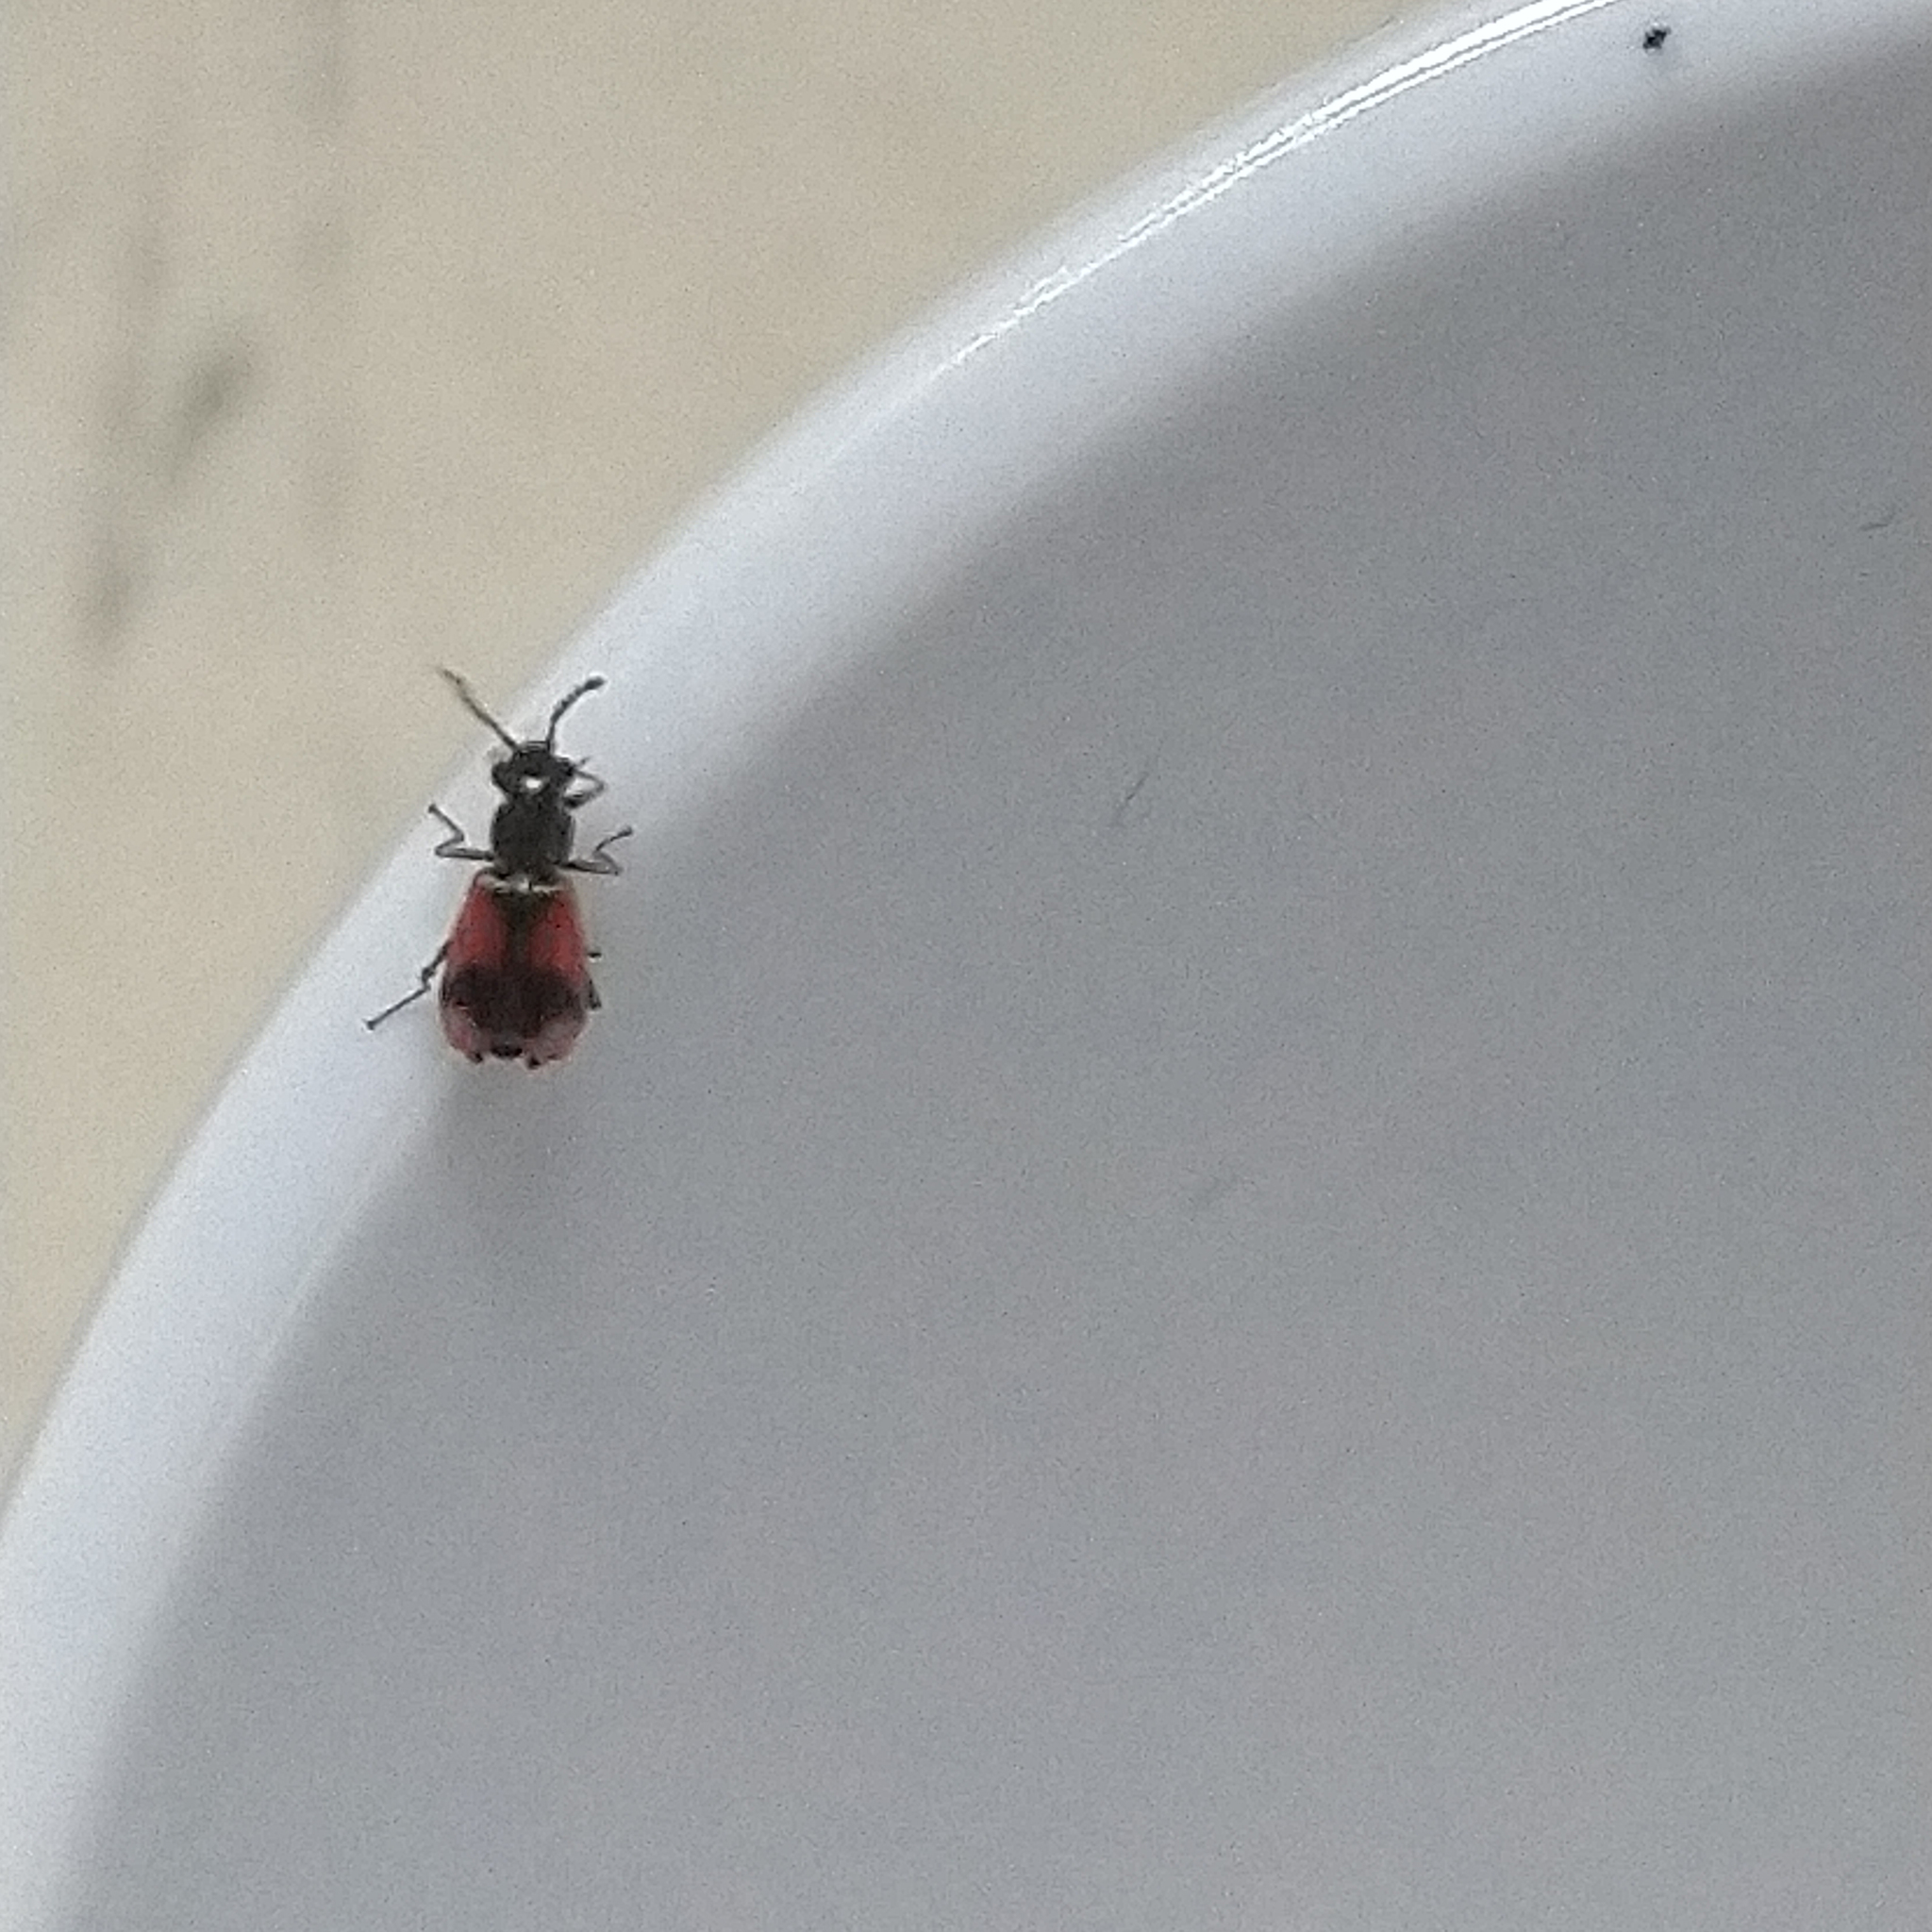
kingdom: Animalia
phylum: Arthropoda
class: Insecta
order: Coleoptera
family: Melyridae
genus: Anthocomus
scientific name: Anthocomus equestris
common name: Black-banded soft-winged flower beetle
